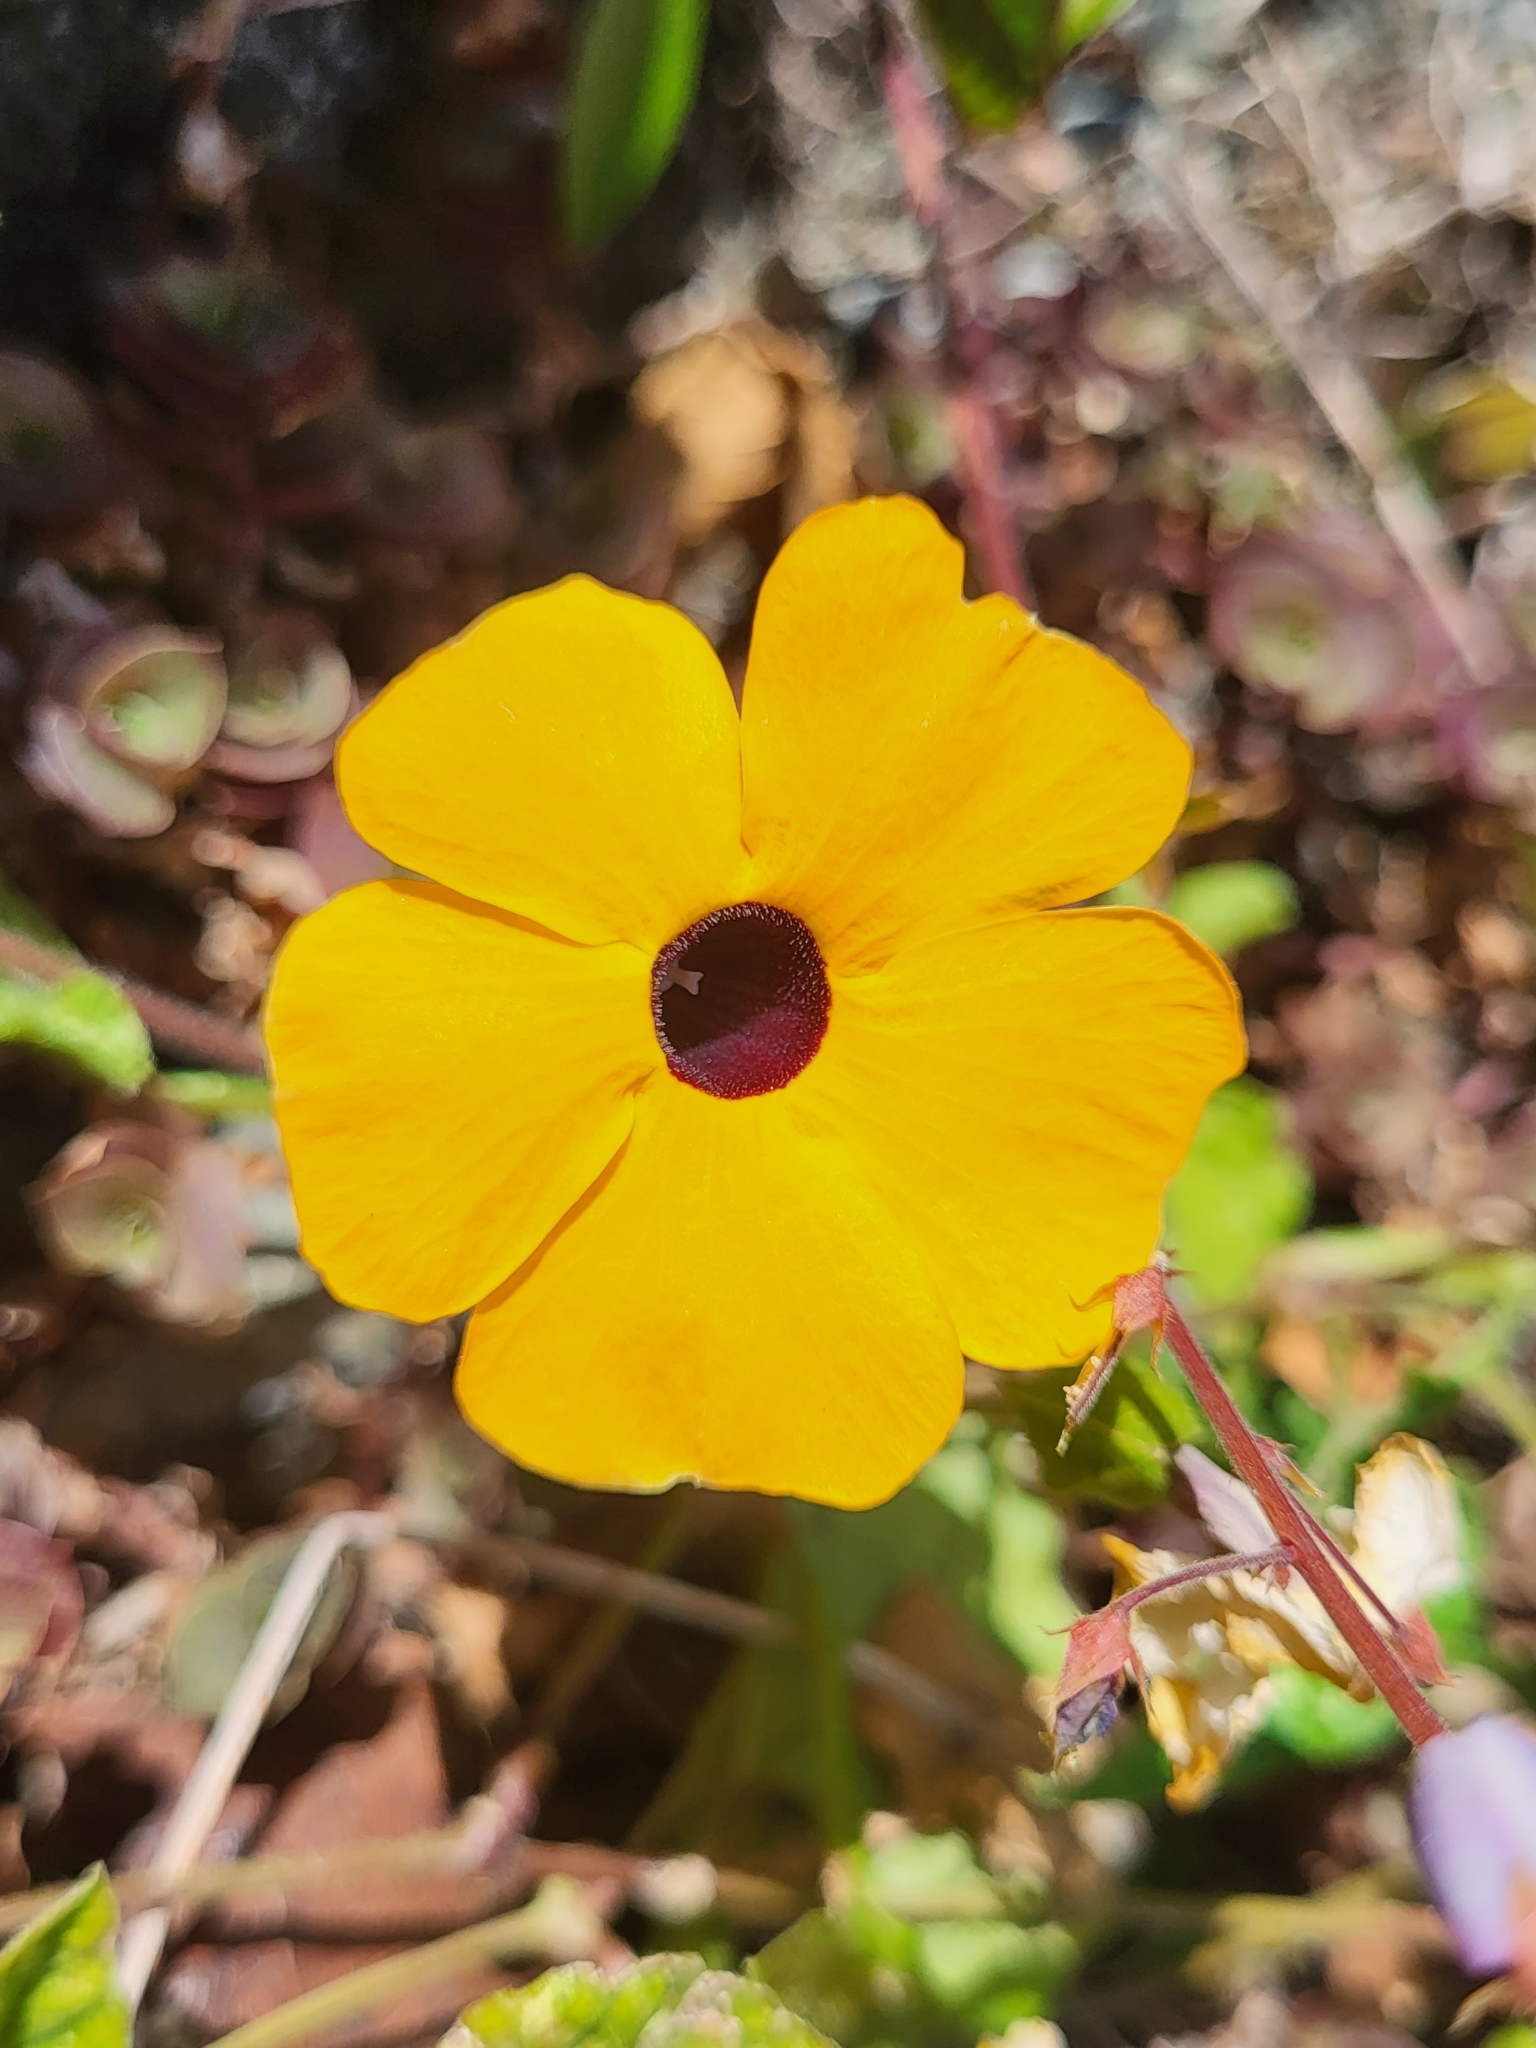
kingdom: Plantae
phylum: Tracheophyta
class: Magnoliopsida
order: Lamiales
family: Acanthaceae
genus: Thunbergia
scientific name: Thunbergia alata
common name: Blackeyed susan vine
